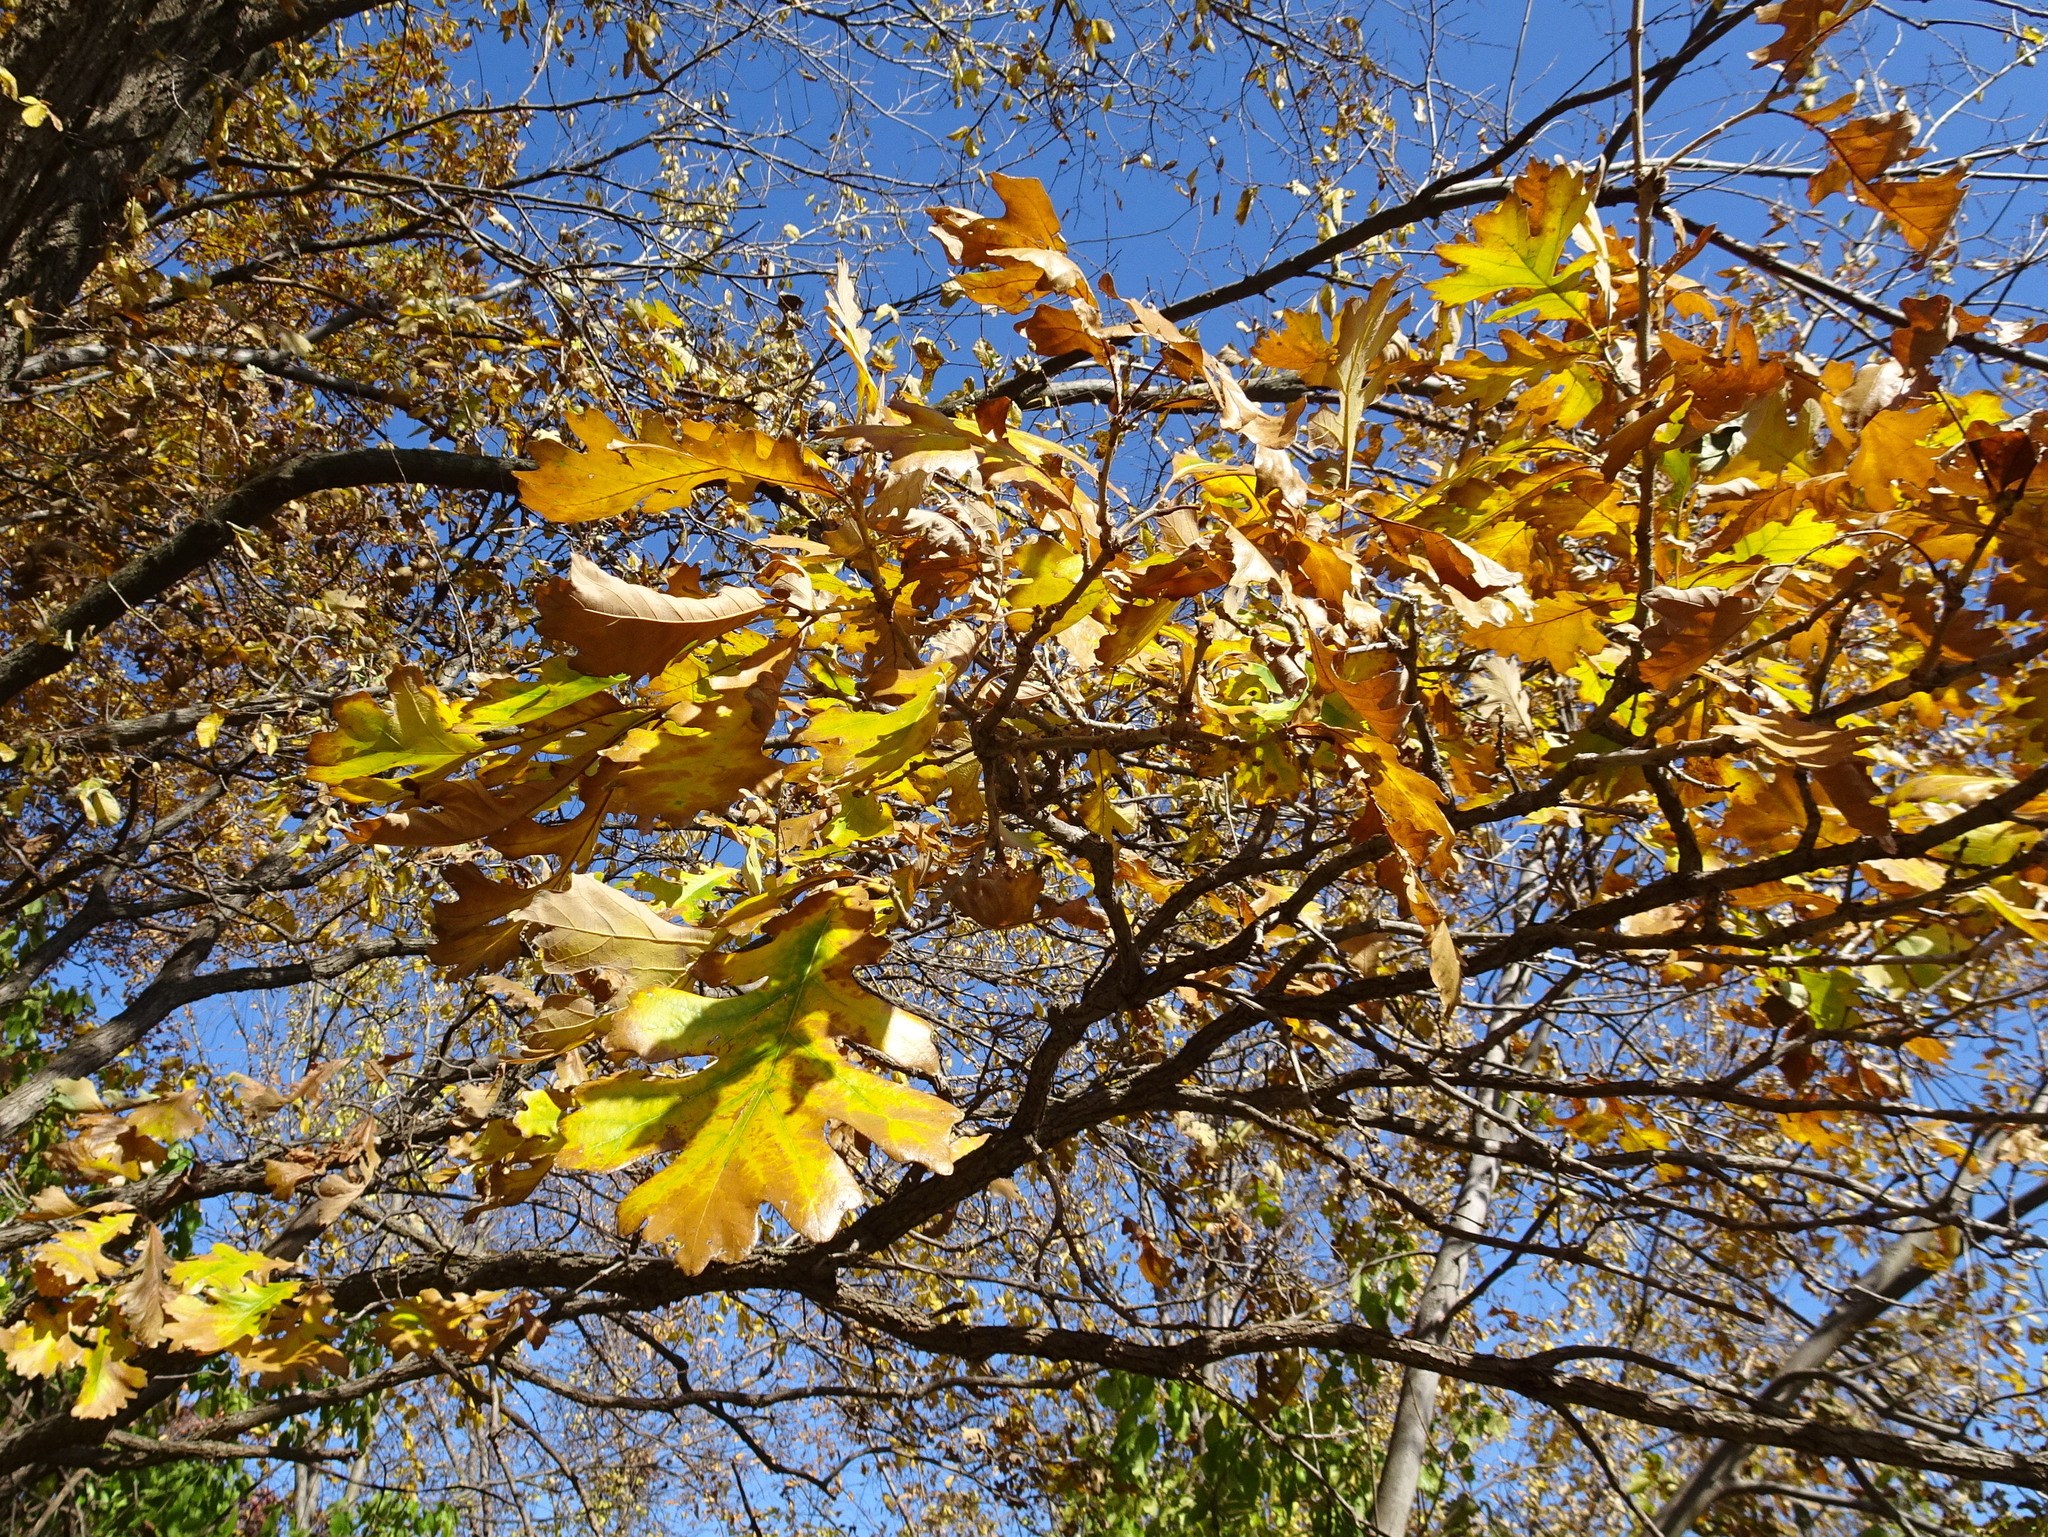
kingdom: Plantae
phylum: Tracheophyta
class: Magnoliopsida
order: Fagales
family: Fagaceae
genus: Quercus
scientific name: Quercus macrocarpa
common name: Bur oak
